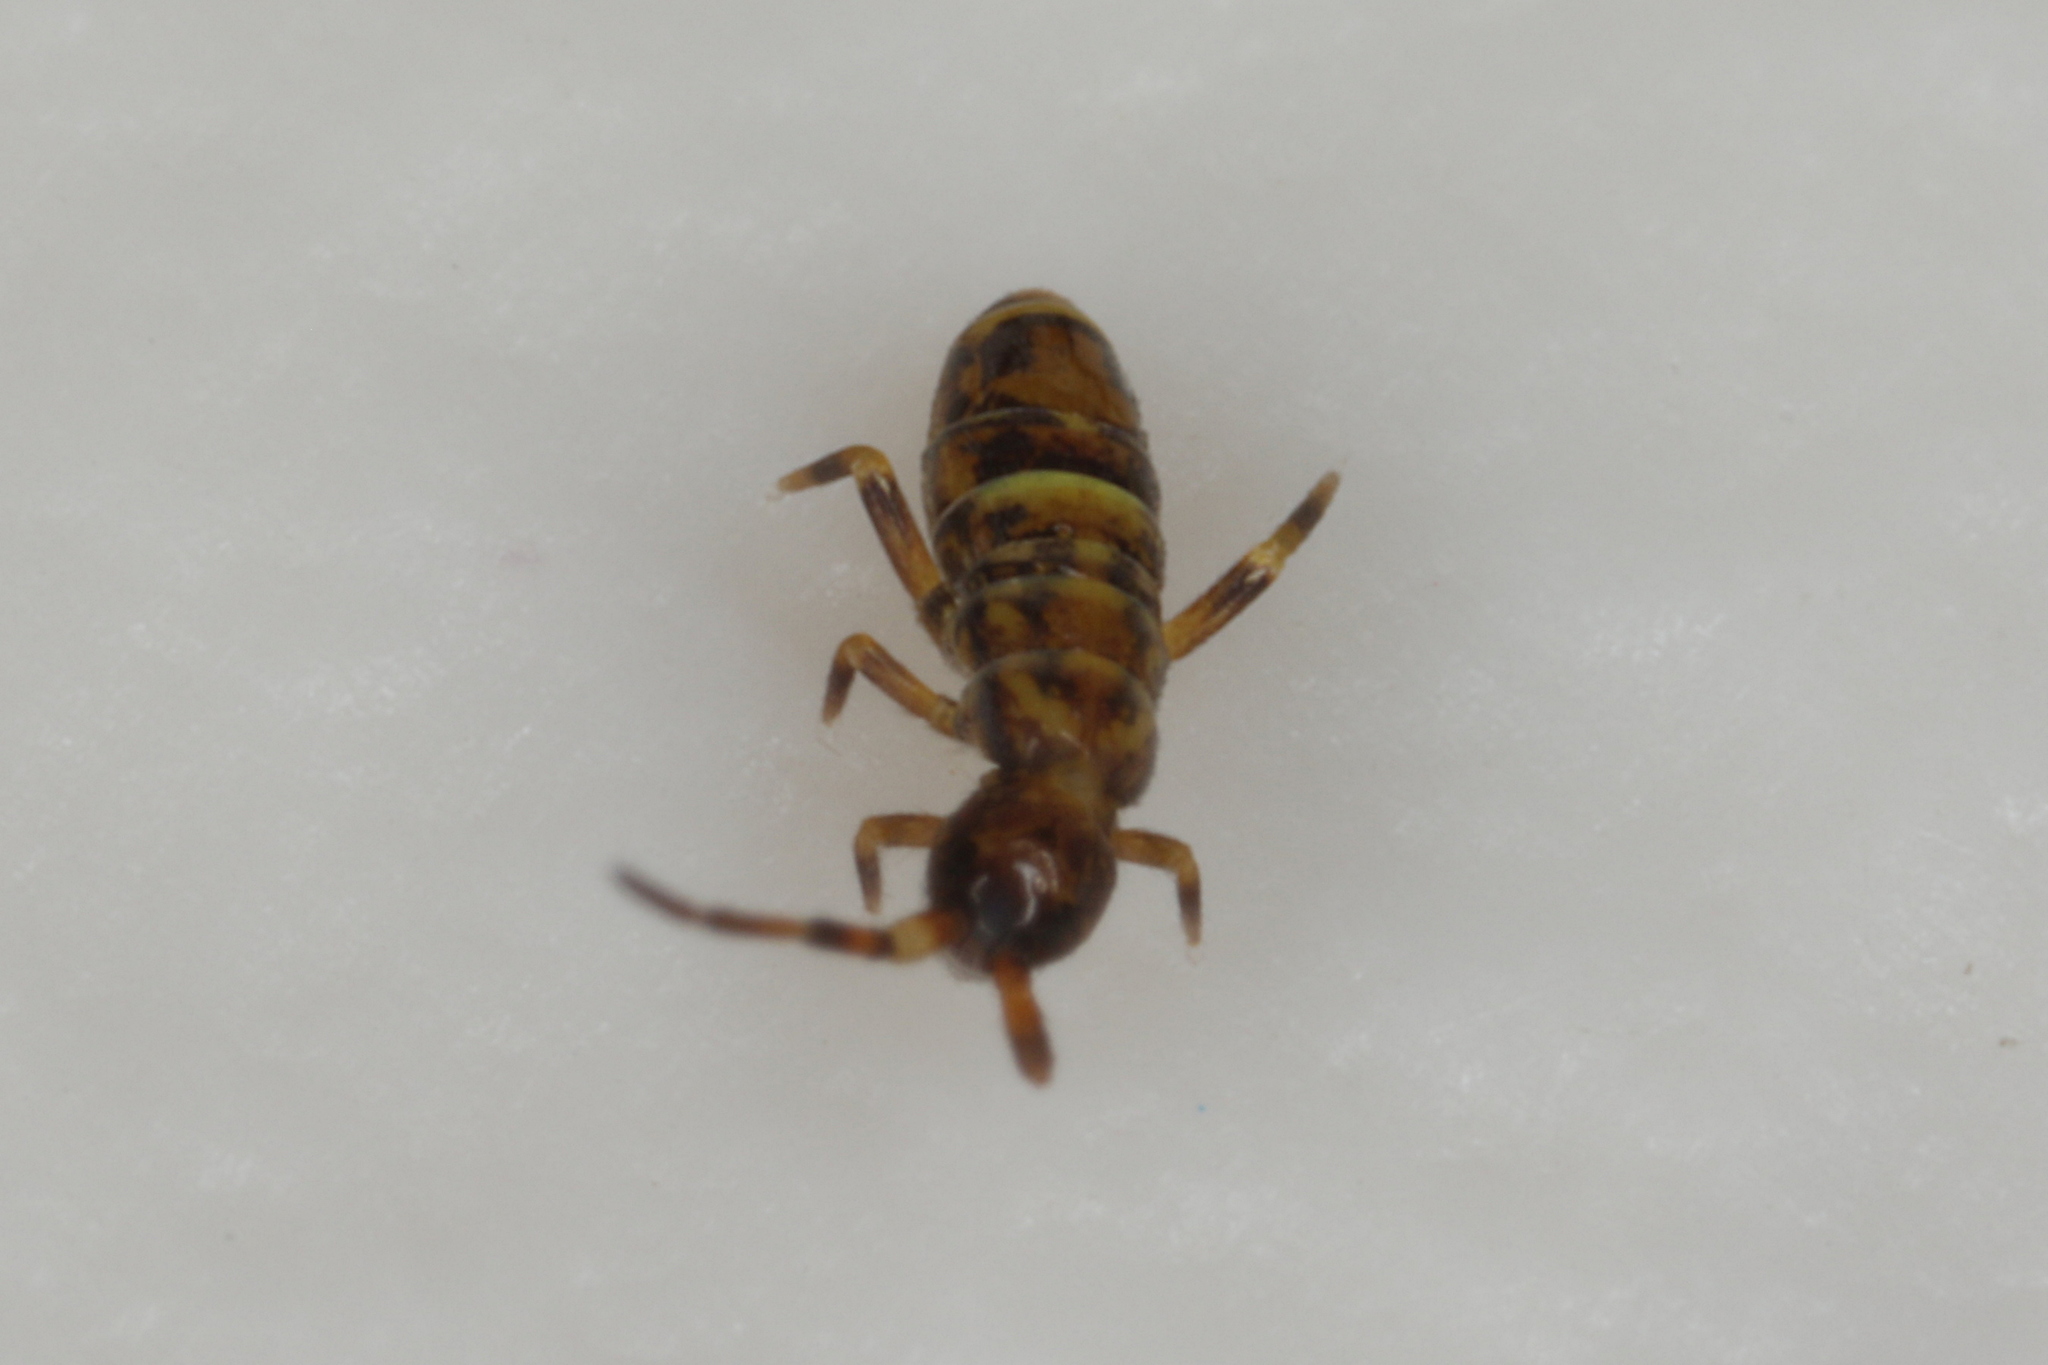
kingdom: Animalia
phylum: Arthropoda
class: Collembola
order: Entomobryomorpha
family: Orchesellidae
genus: Orchesella
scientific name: Orchesella cincta
